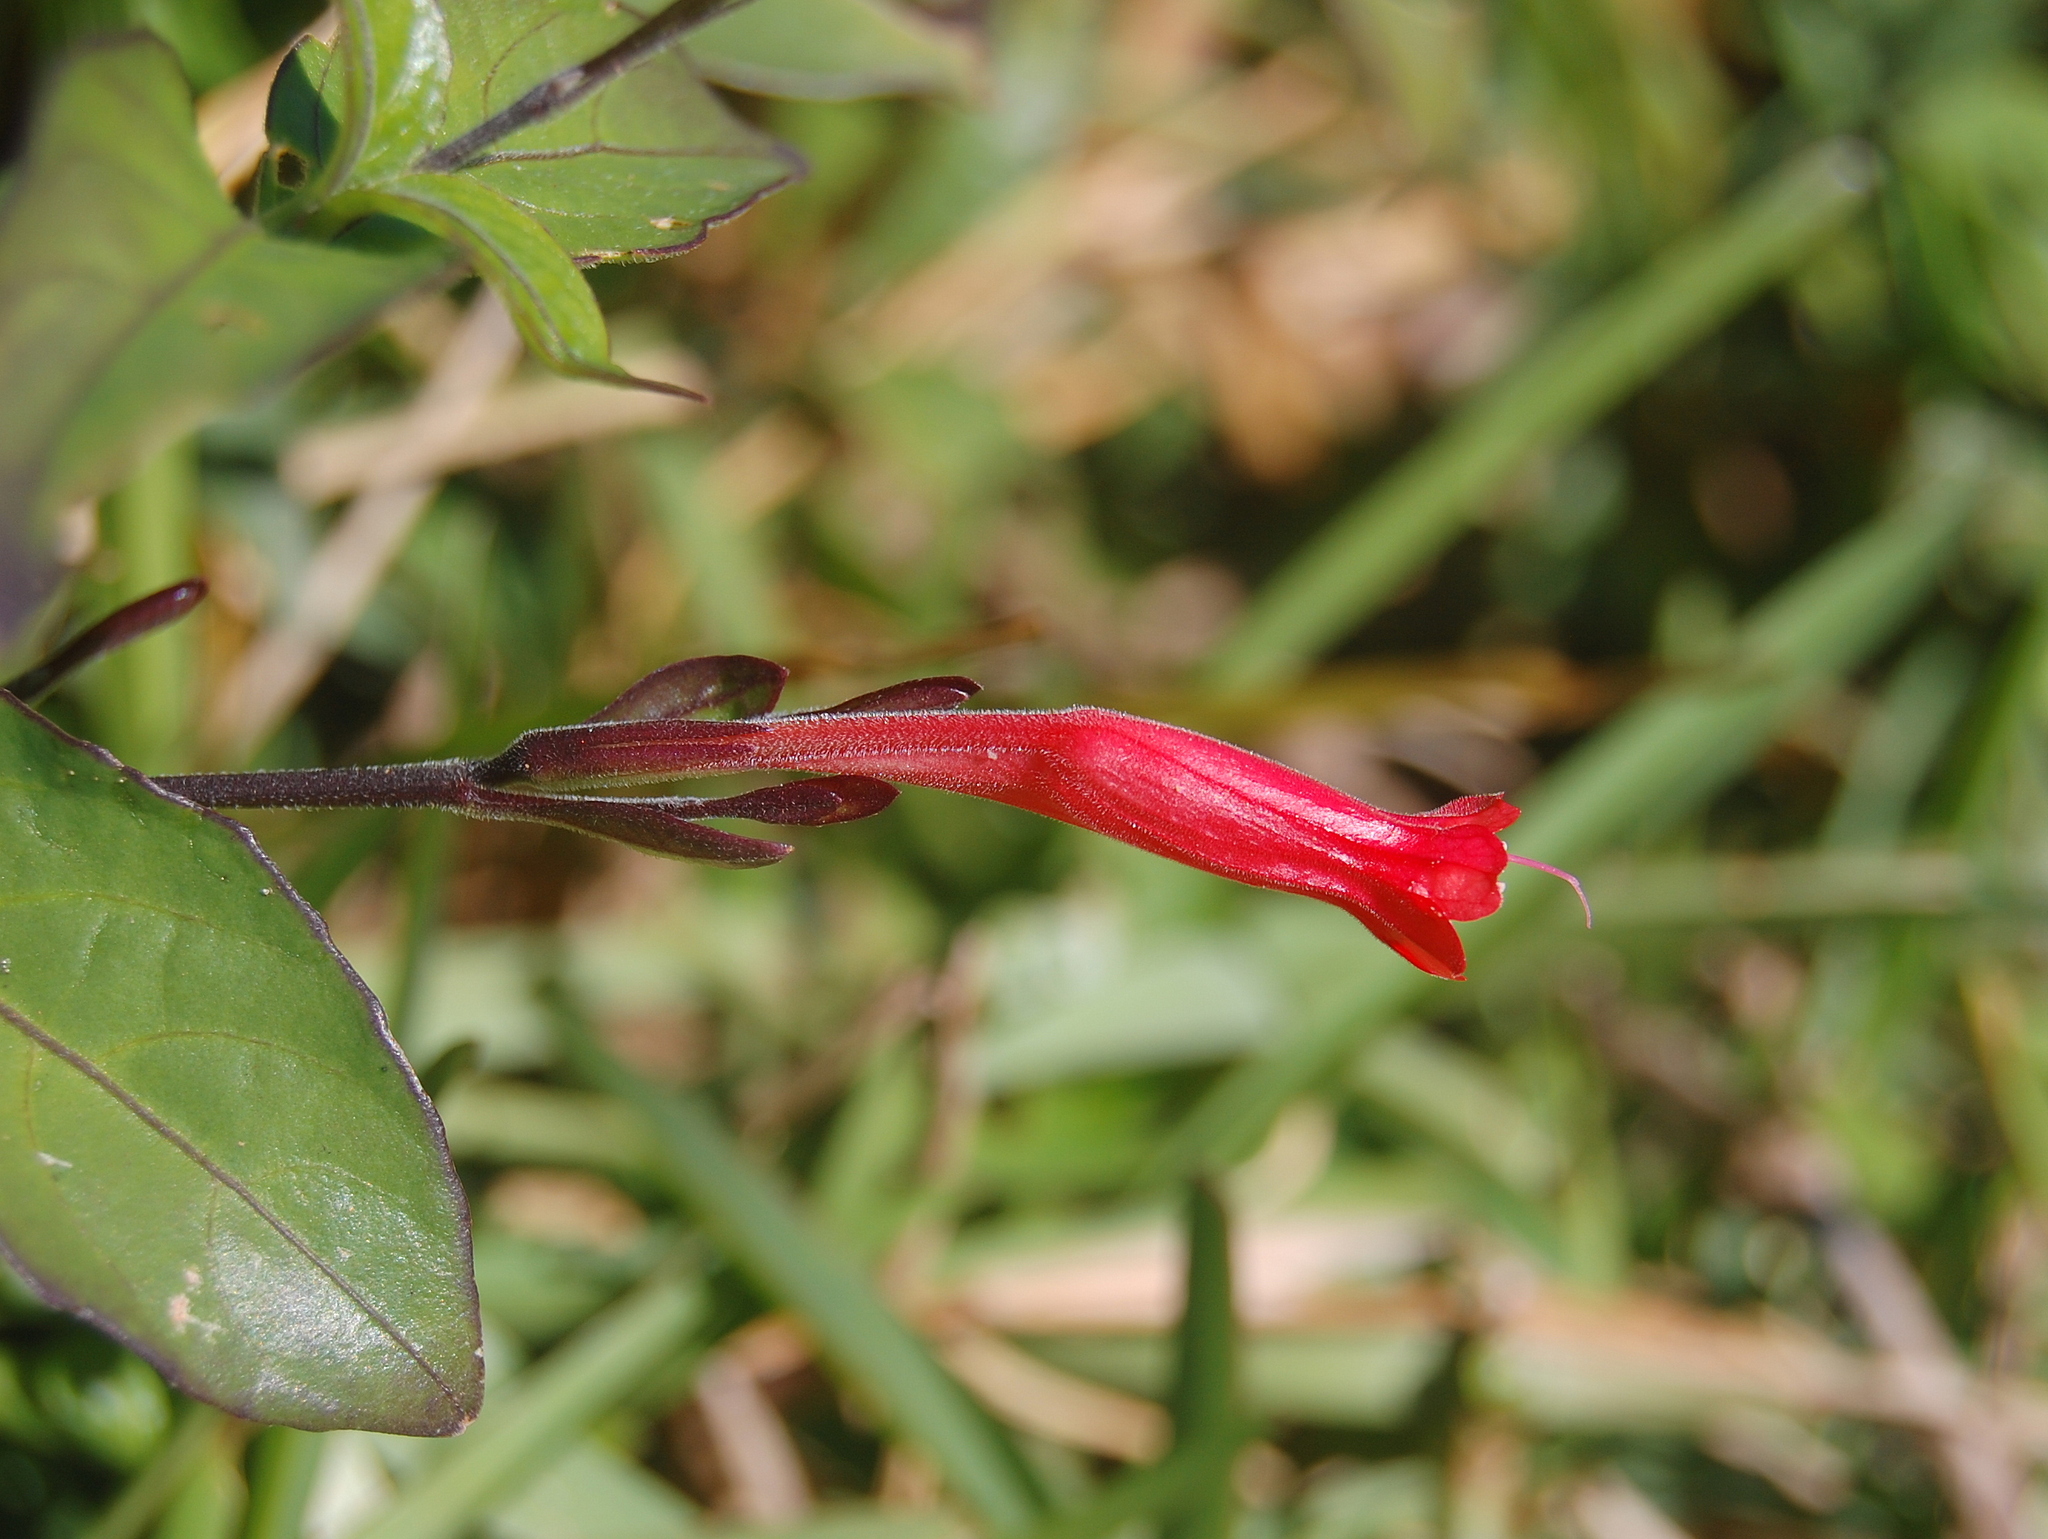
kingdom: Plantae
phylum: Tracheophyta
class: Magnoliopsida
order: Lamiales
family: Acanthaceae
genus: Ruellia
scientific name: Ruellia angustiflora
